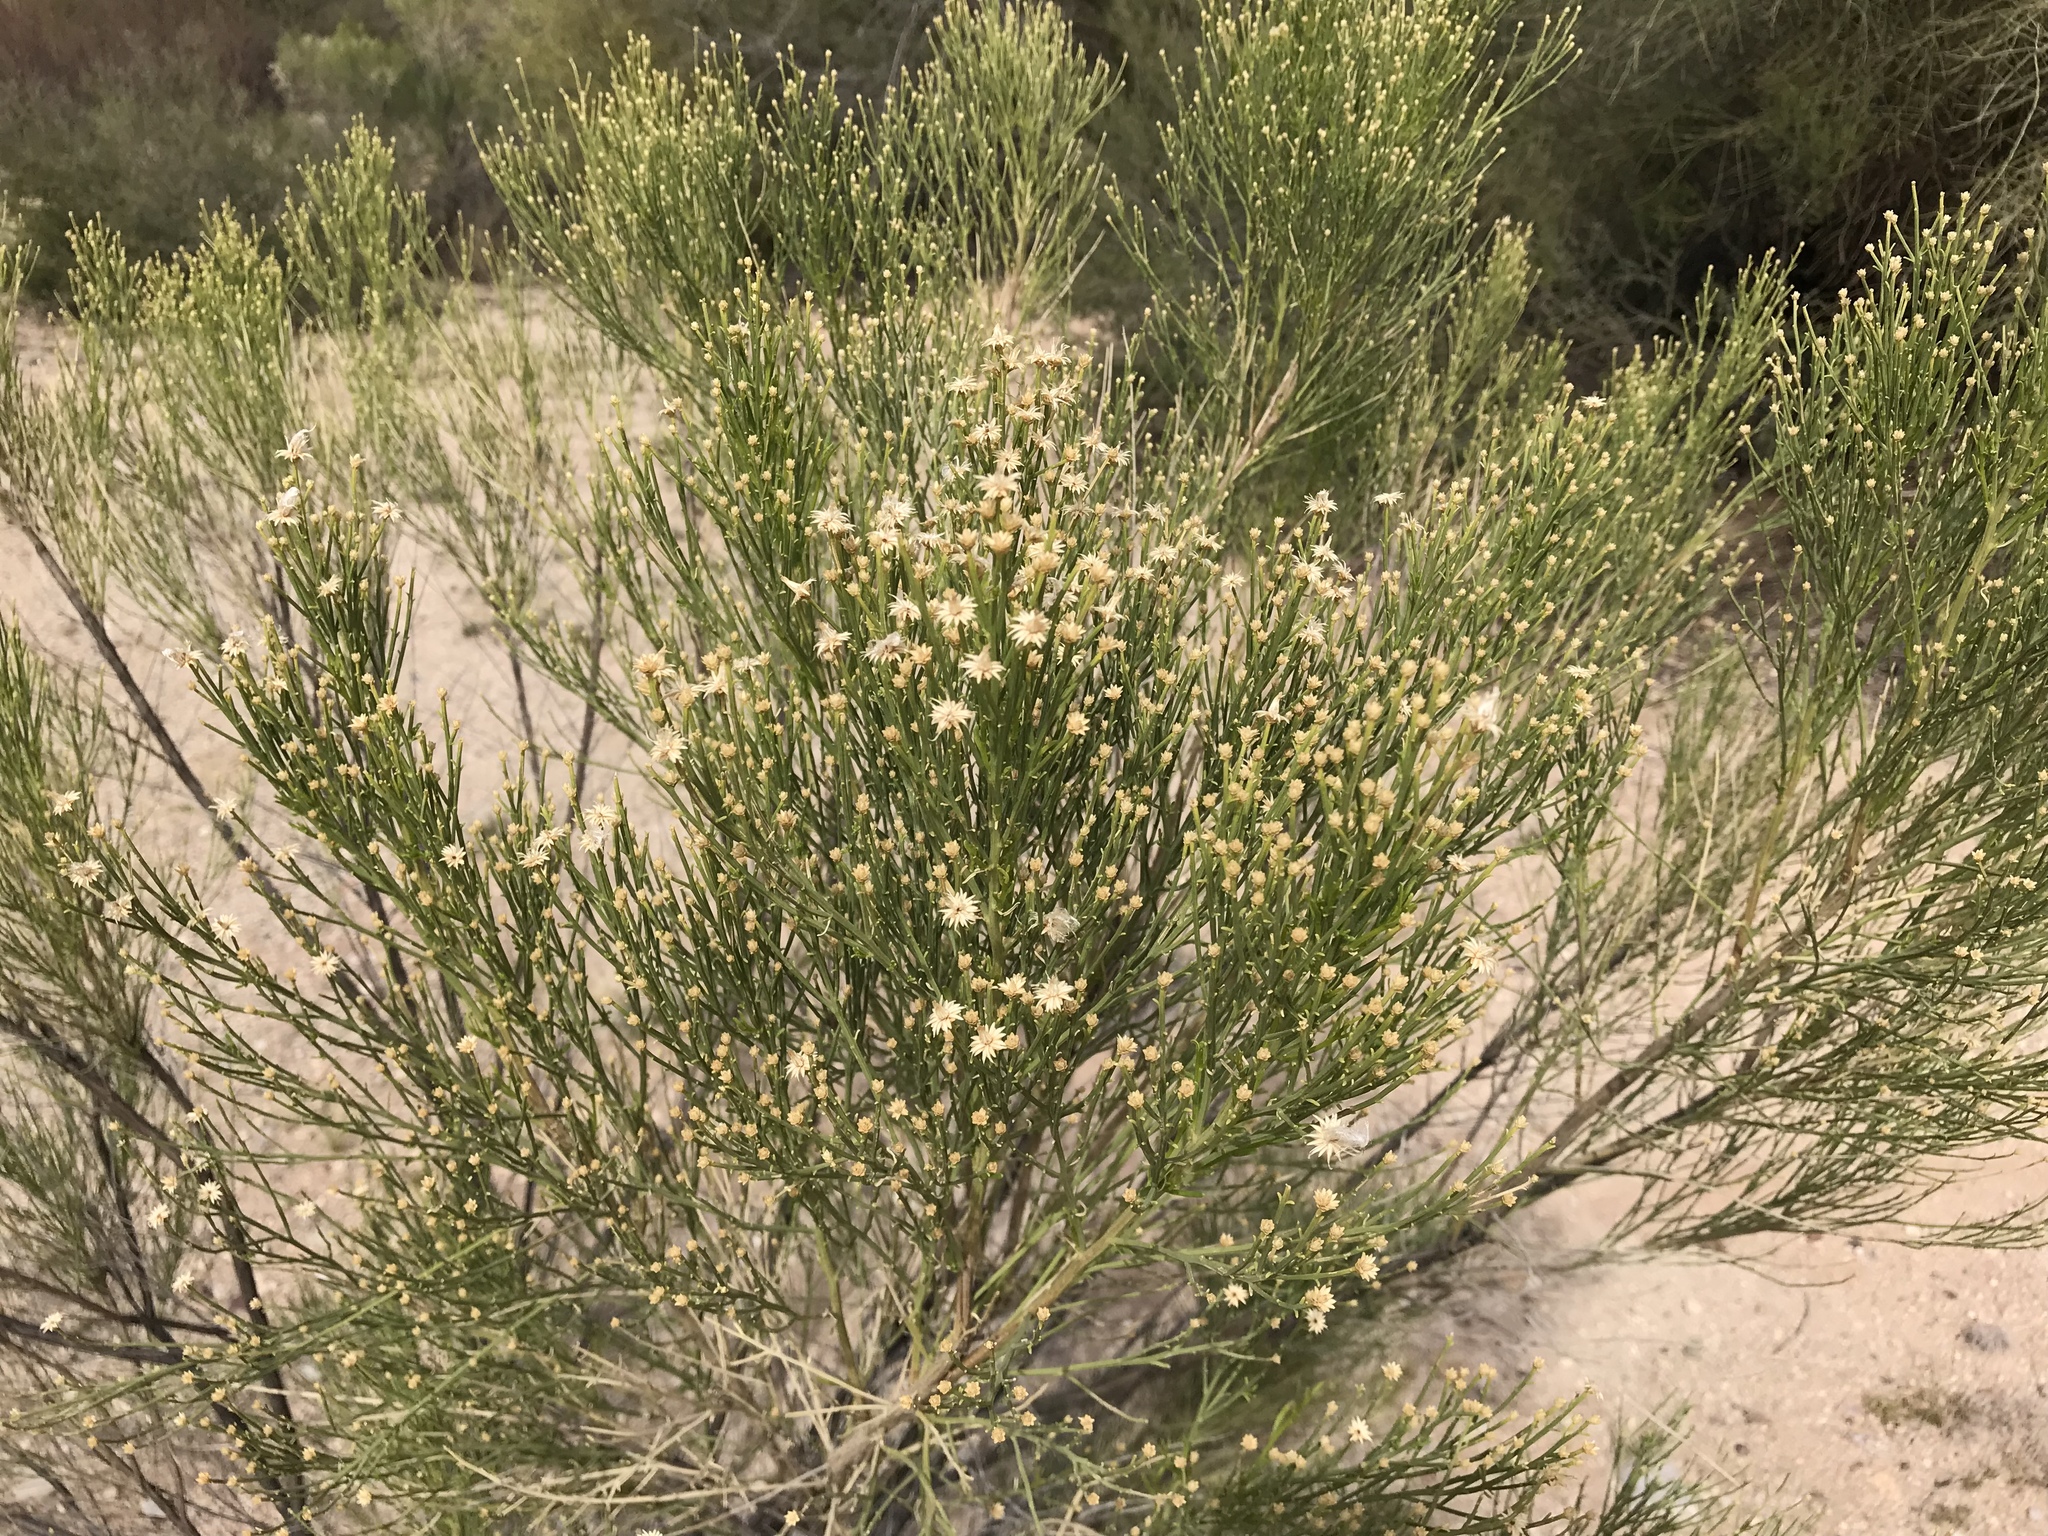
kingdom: Plantae
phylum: Tracheophyta
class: Magnoliopsida
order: Asterales
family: Asteraceae
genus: Baccharis
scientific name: Baccharis sarothroides
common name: Desert-broom
